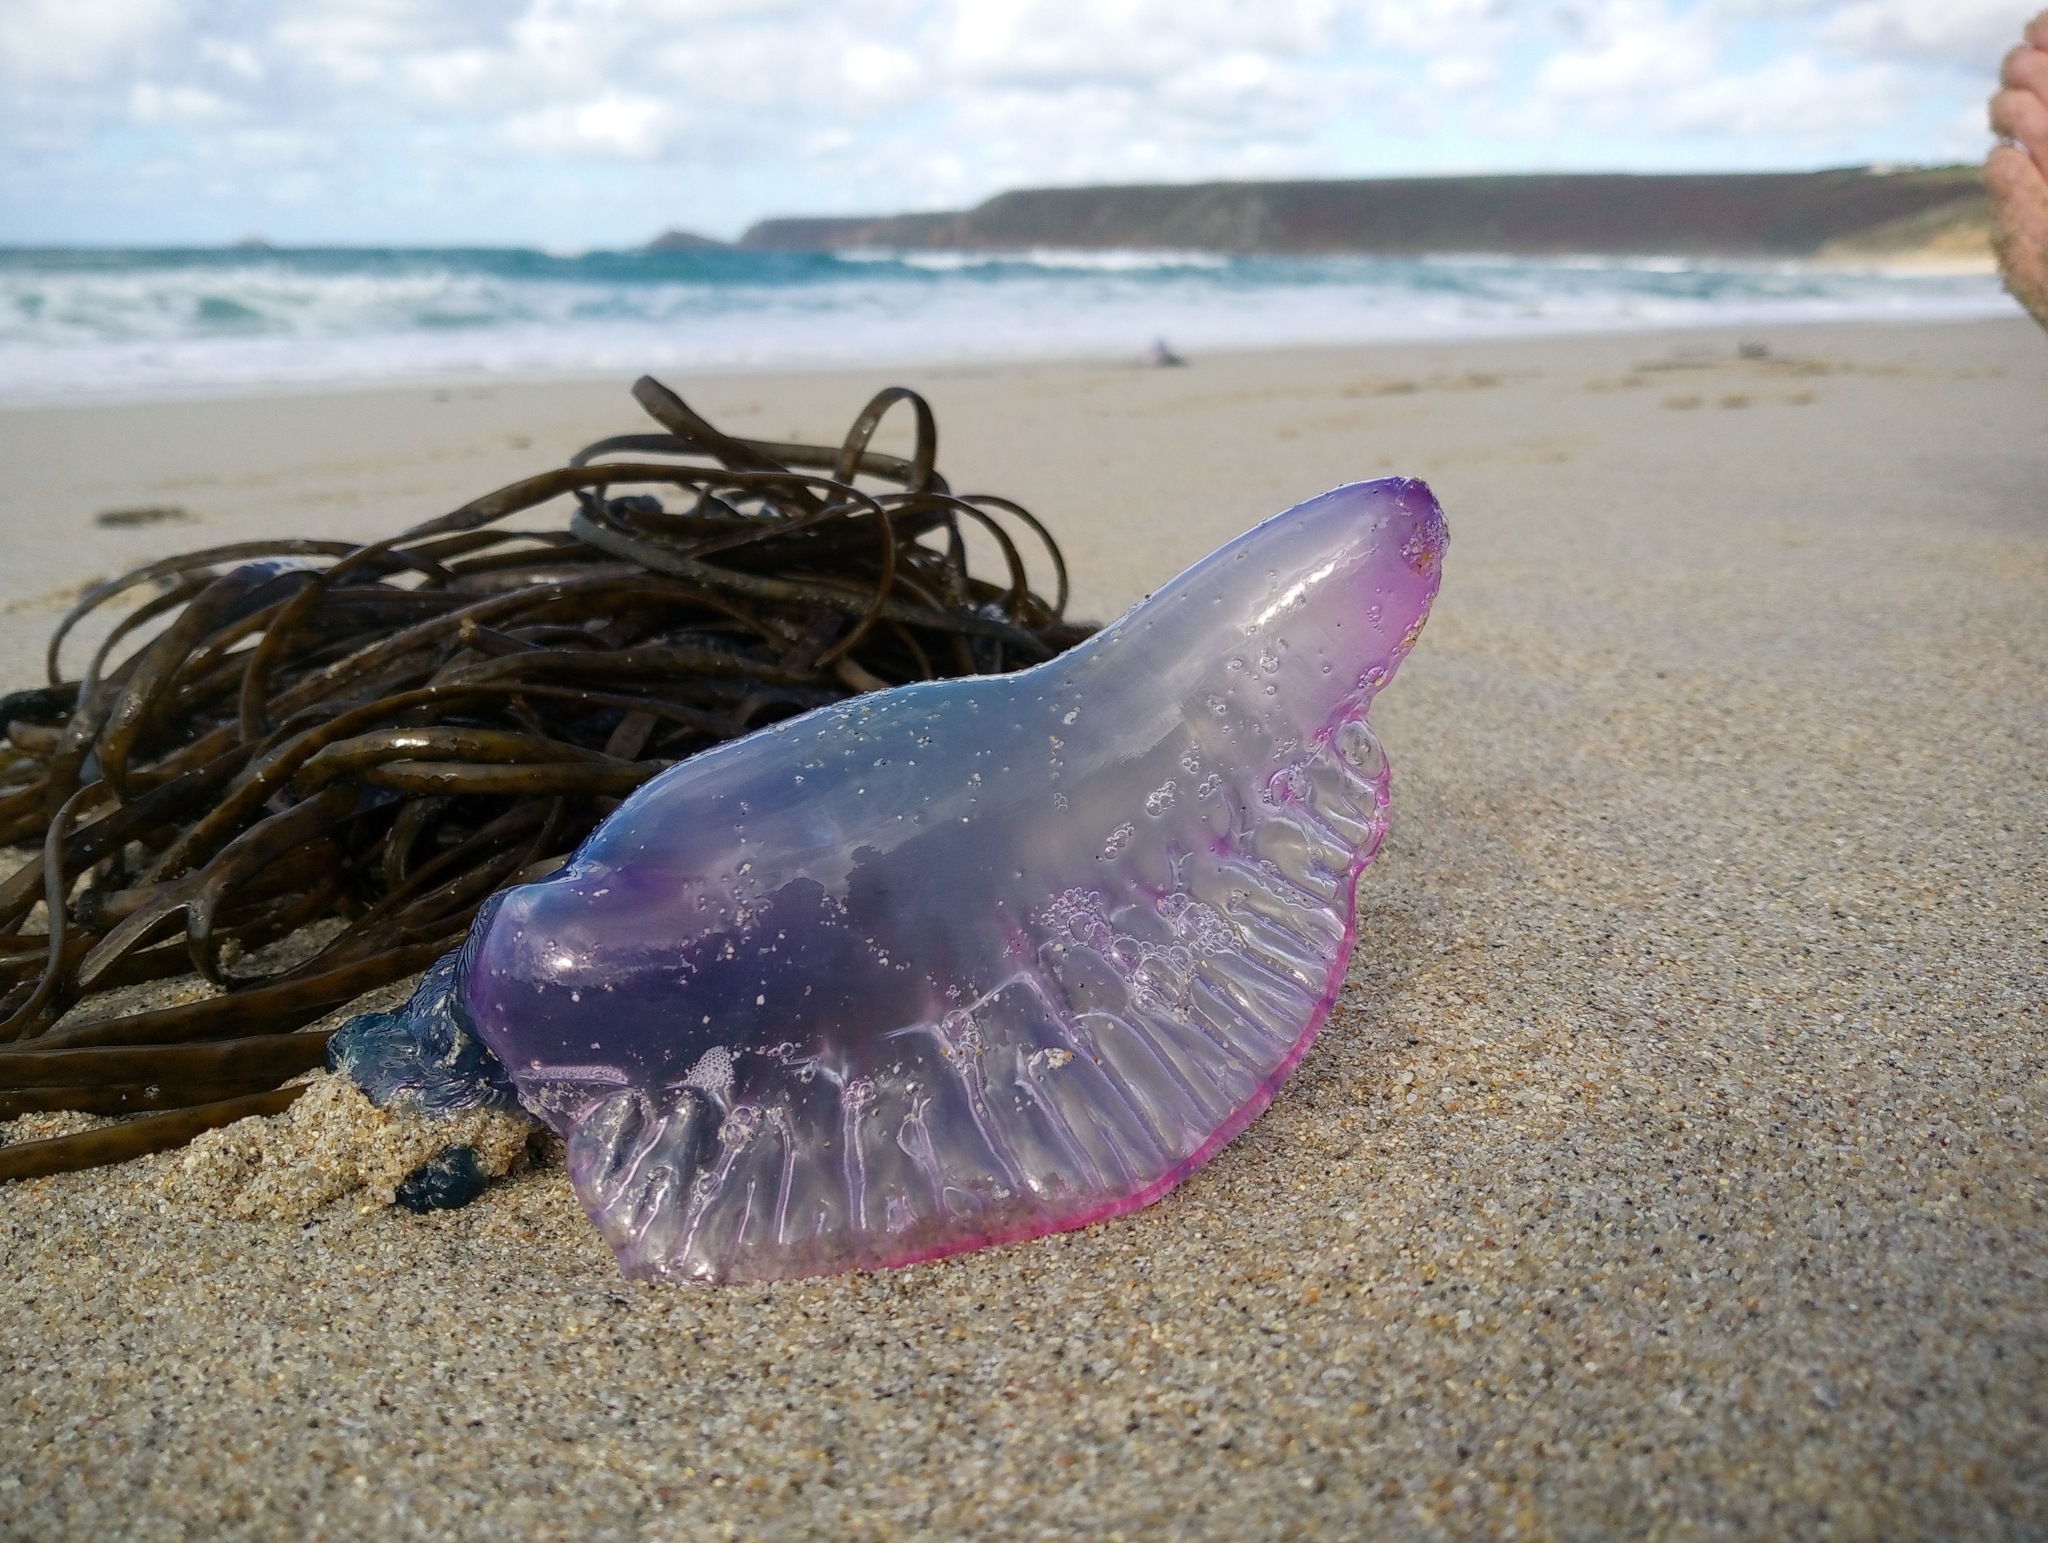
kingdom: Animalia
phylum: Cnidaria
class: Hydrozoa
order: Siphonophorae
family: Physaliidae
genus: Physalia
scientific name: Physalia physalis
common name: Portuguese man-of-war
